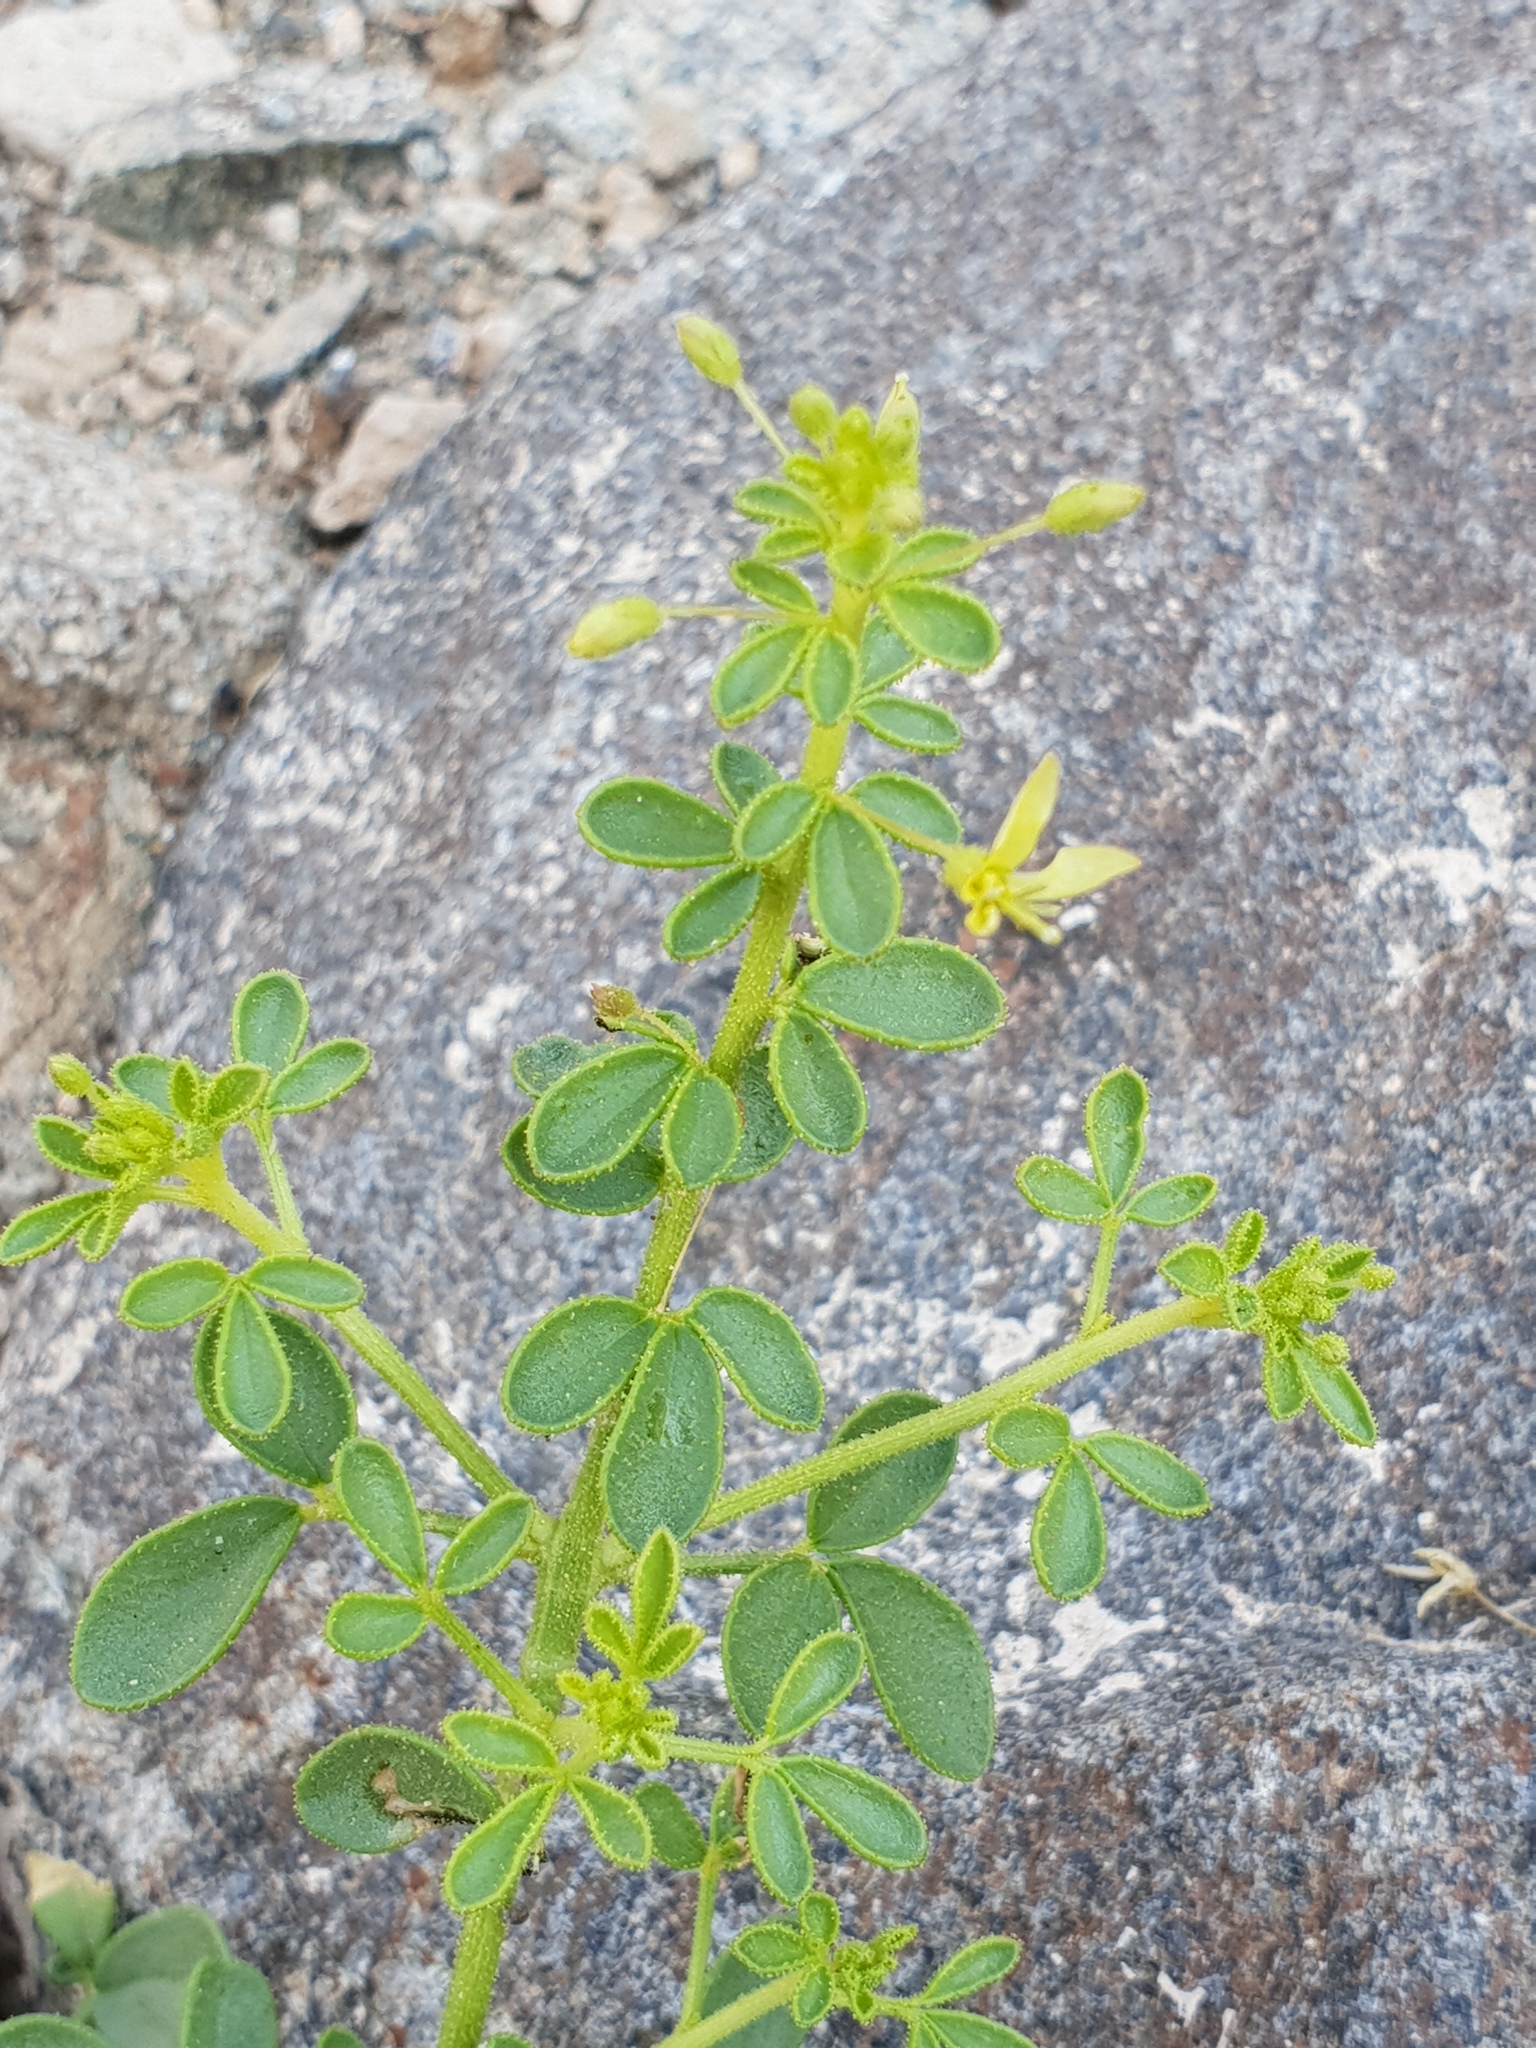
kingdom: Plantae
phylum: Tracheophyta
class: Magnoliopsida
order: Brassicales
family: Cleomaceae
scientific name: Cleomaceae
